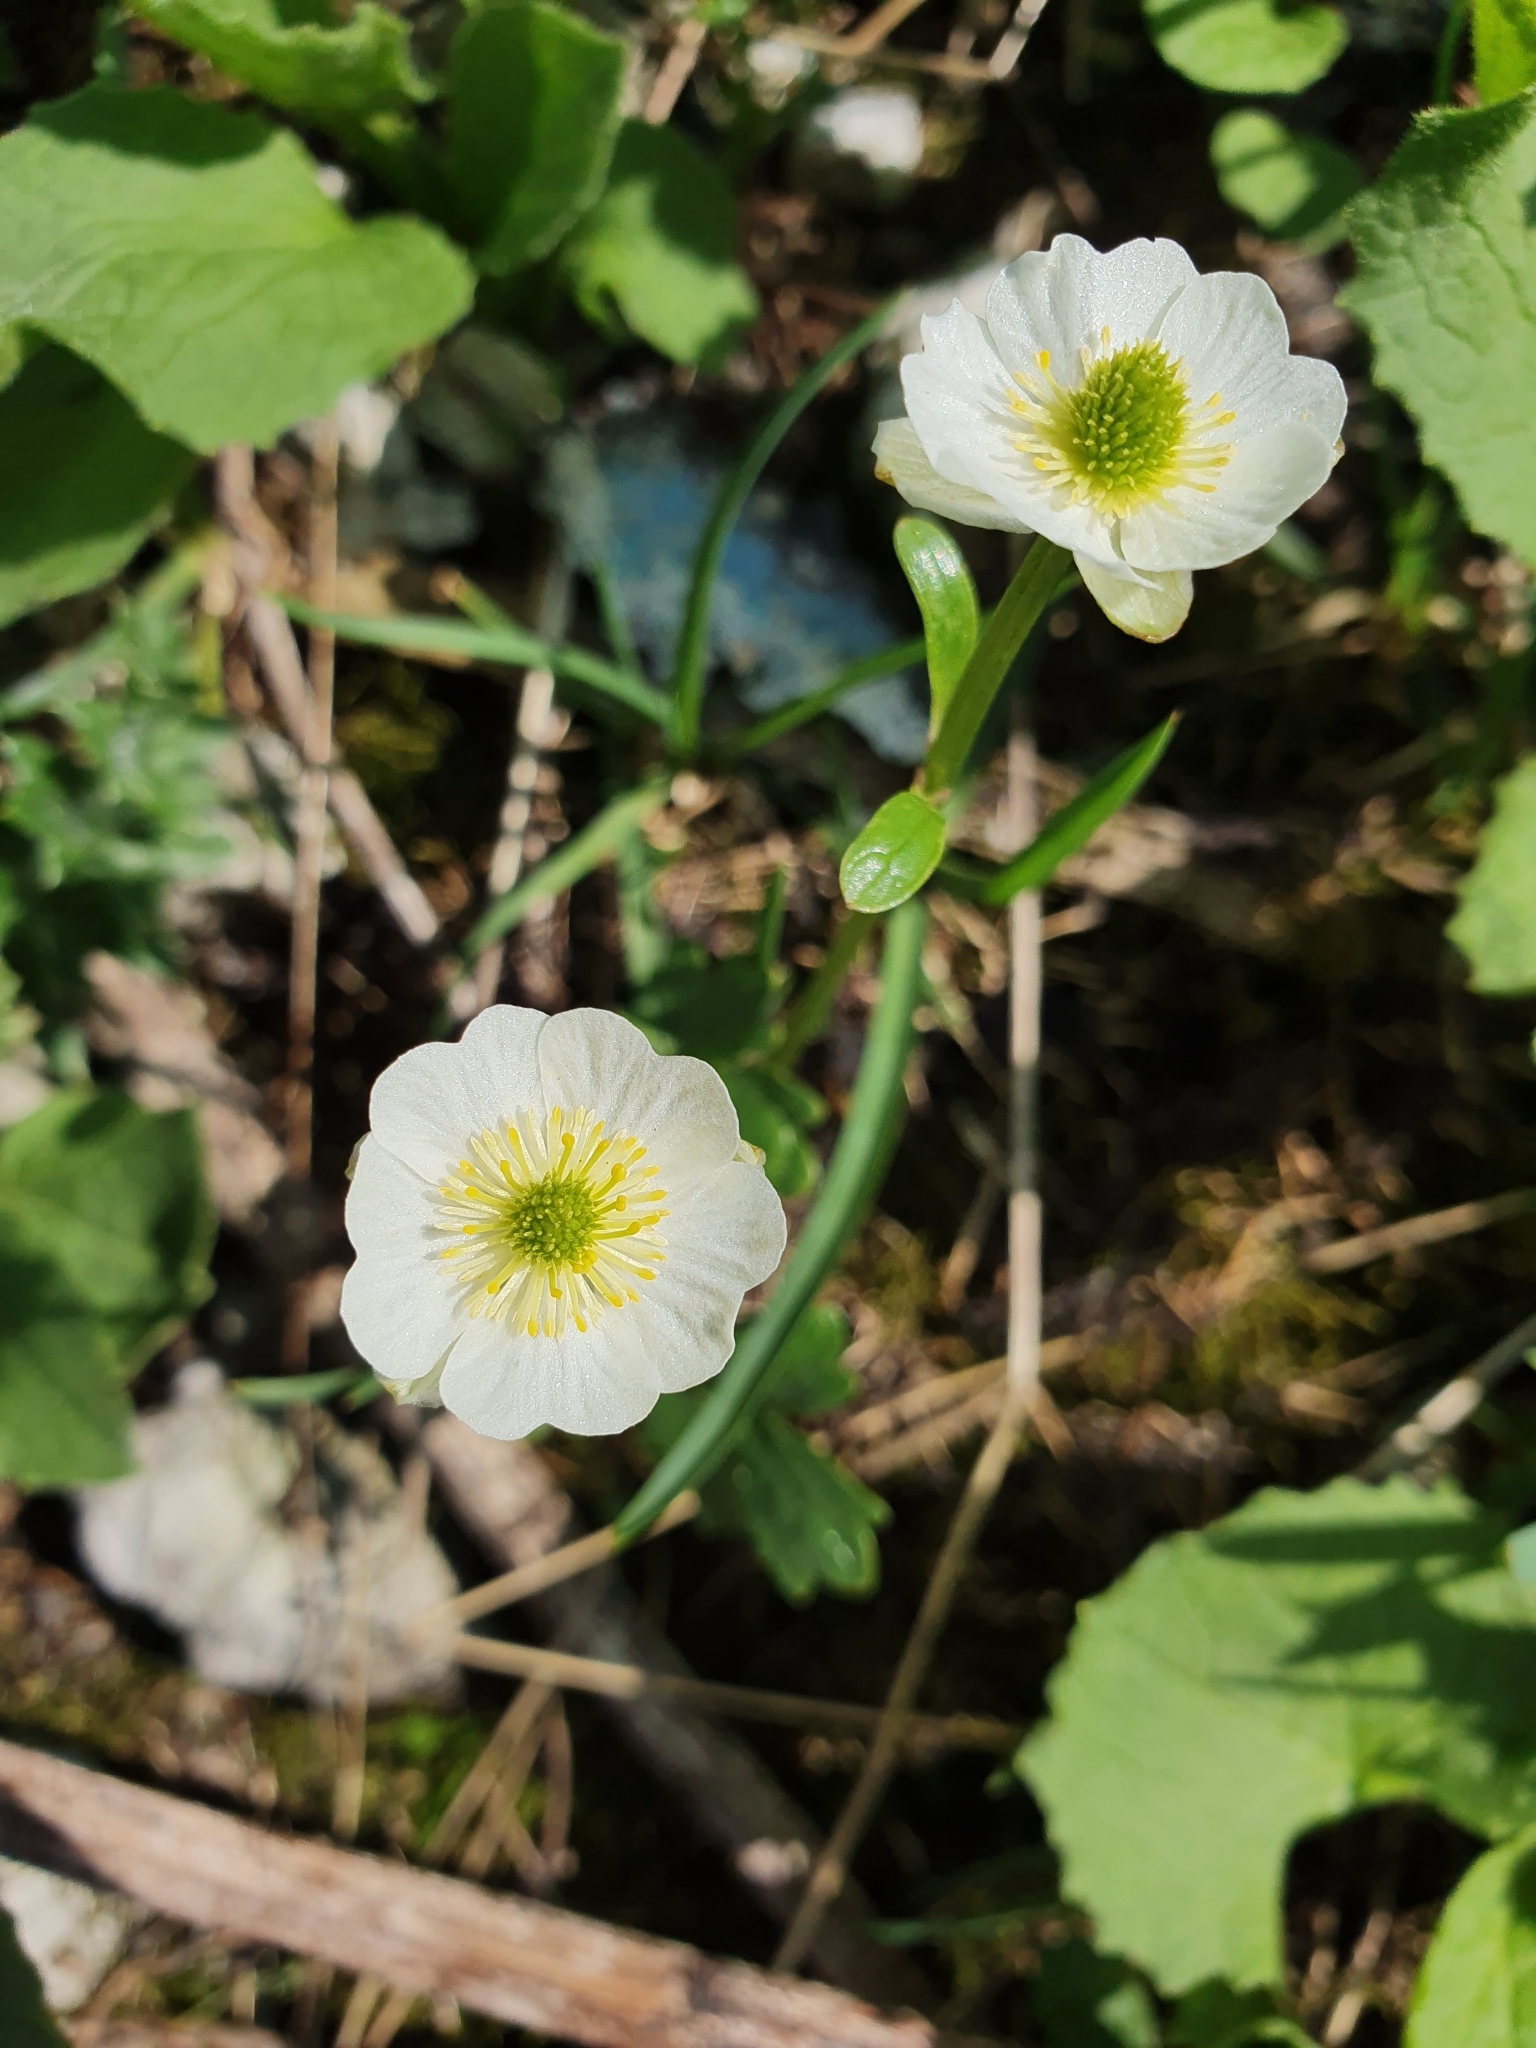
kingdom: Plantae
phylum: Tracheophyta
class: Magnoliopsida
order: Ranunculales
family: Ranunculaceae
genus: Ranunculus
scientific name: Ranunculus alpestris
